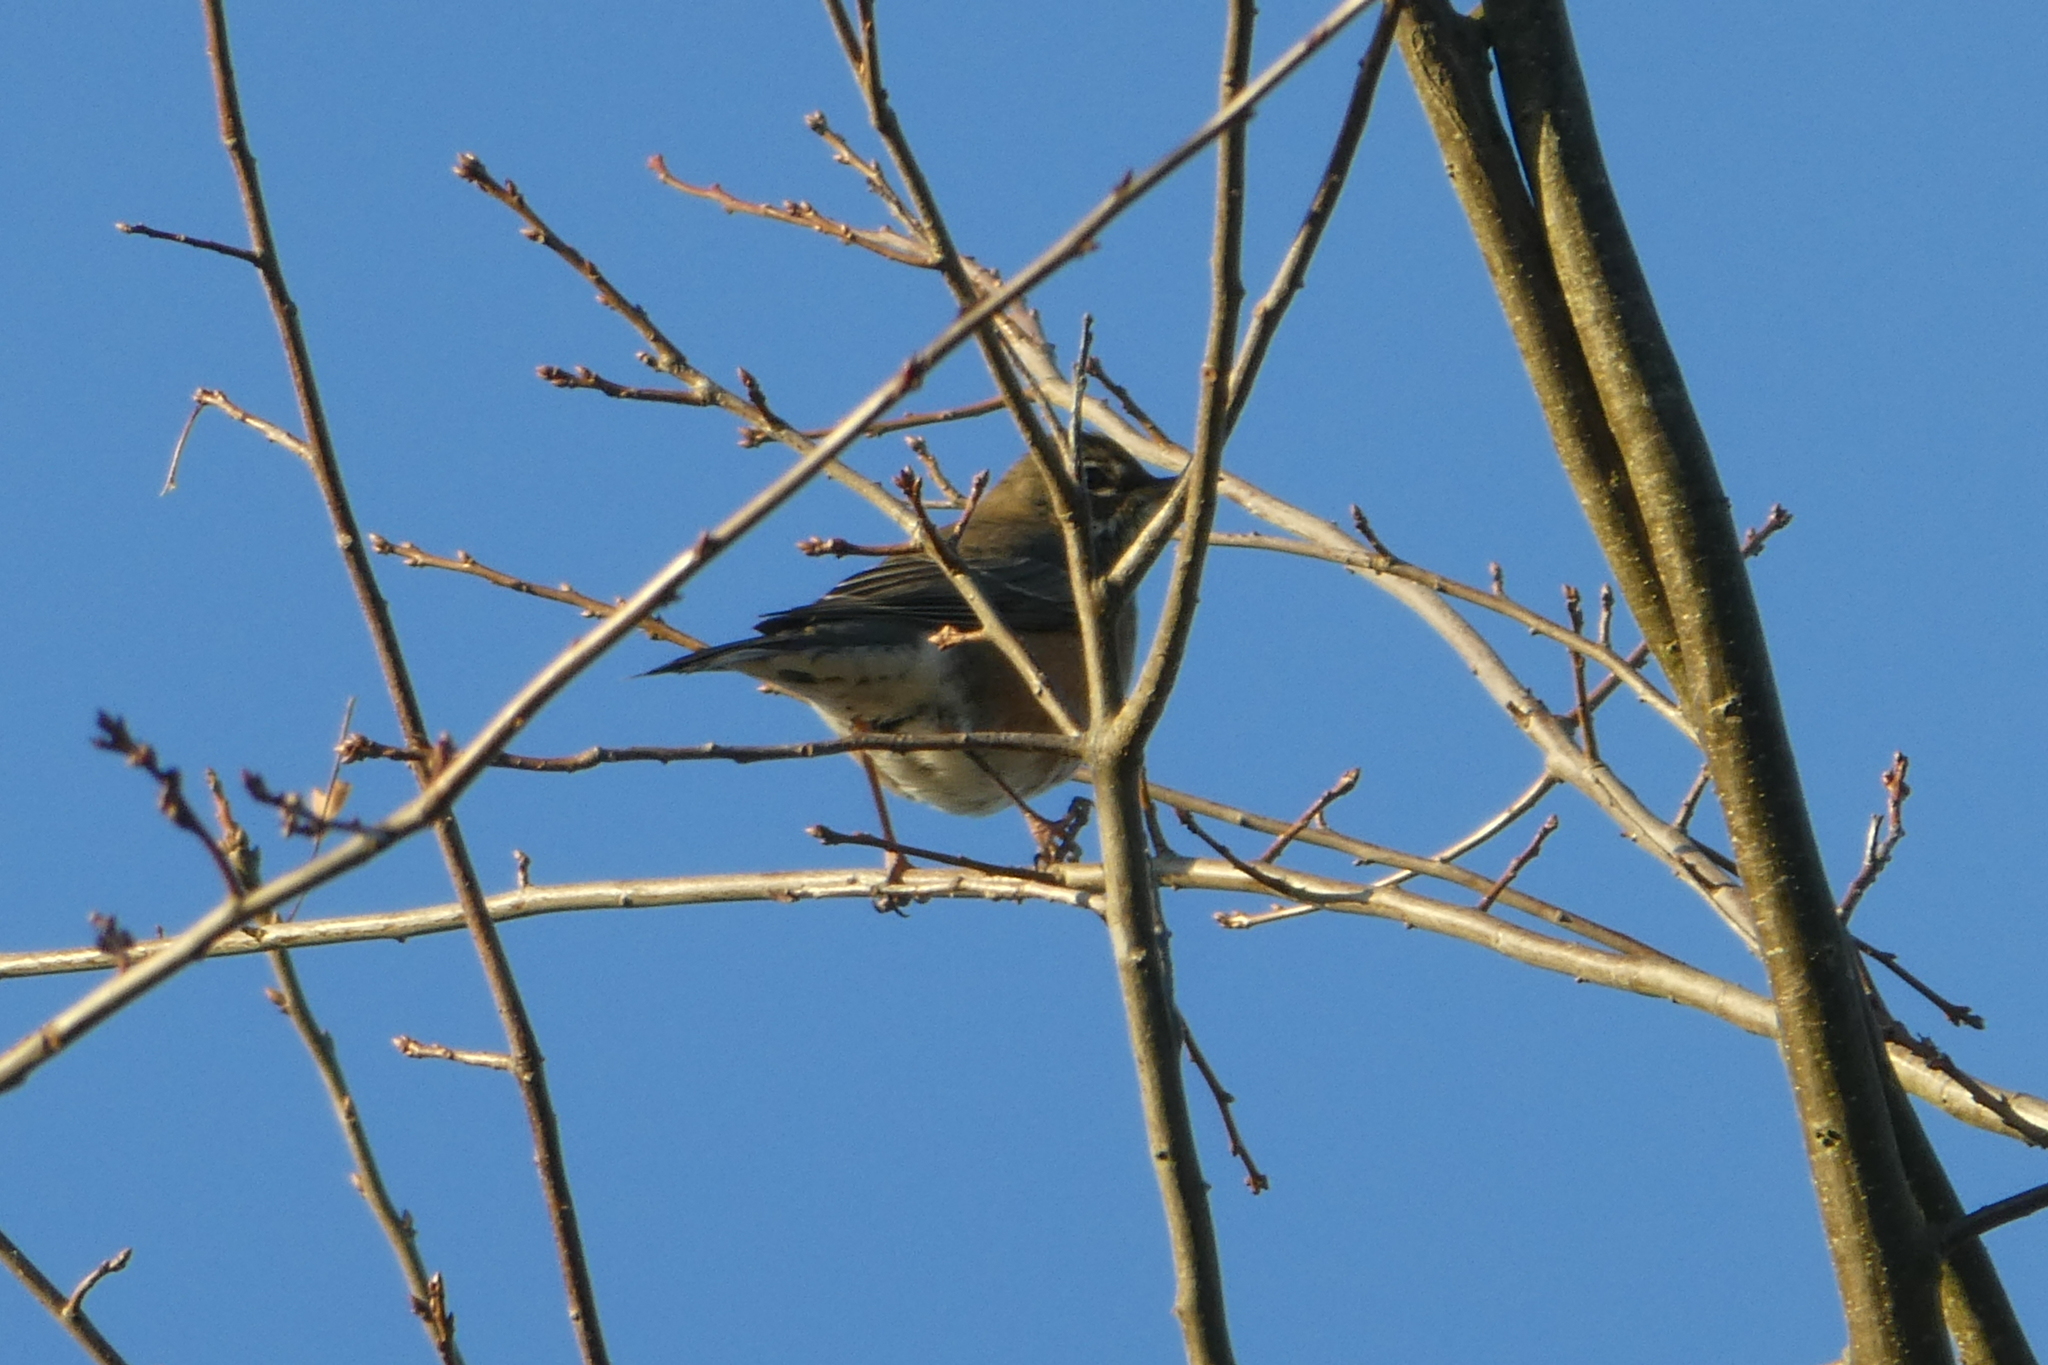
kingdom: Animalia
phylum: Chordata
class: Aves
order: Passeriformes
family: Turdidae
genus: Turdus
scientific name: Turdus migratorius
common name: American robin
